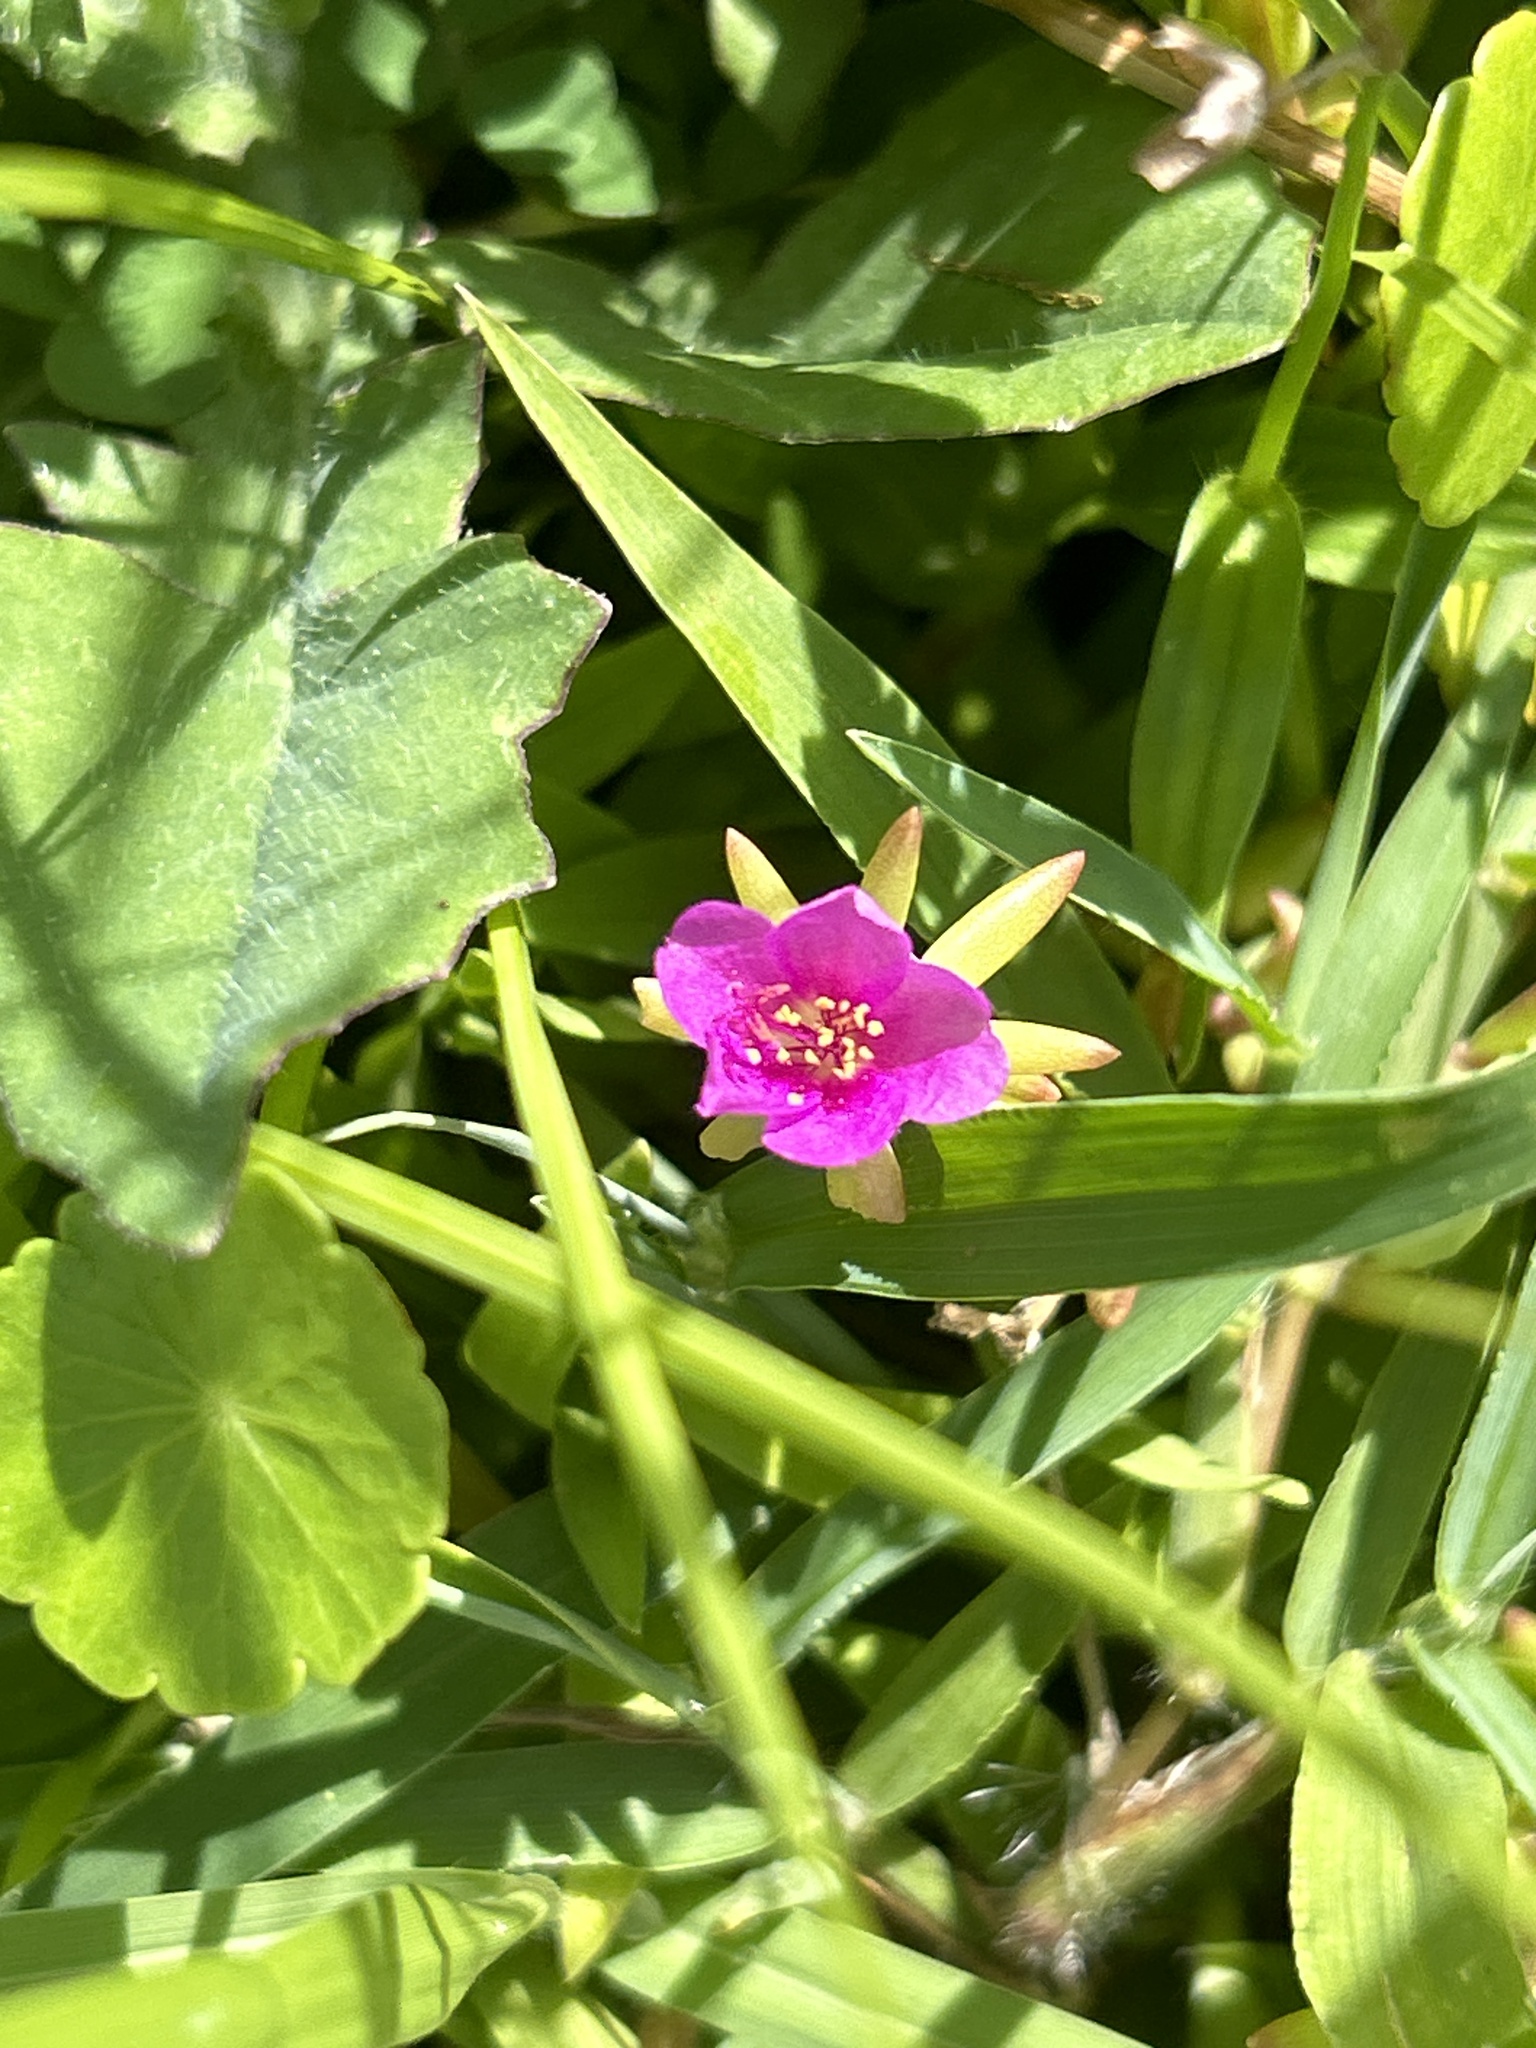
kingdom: Plantae
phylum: Tracheophyta
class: Magnoliopsida
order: Caryophyllales
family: Portulacaceae
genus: Portulaca
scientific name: Portulaca pilosa
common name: Kiss me quick
